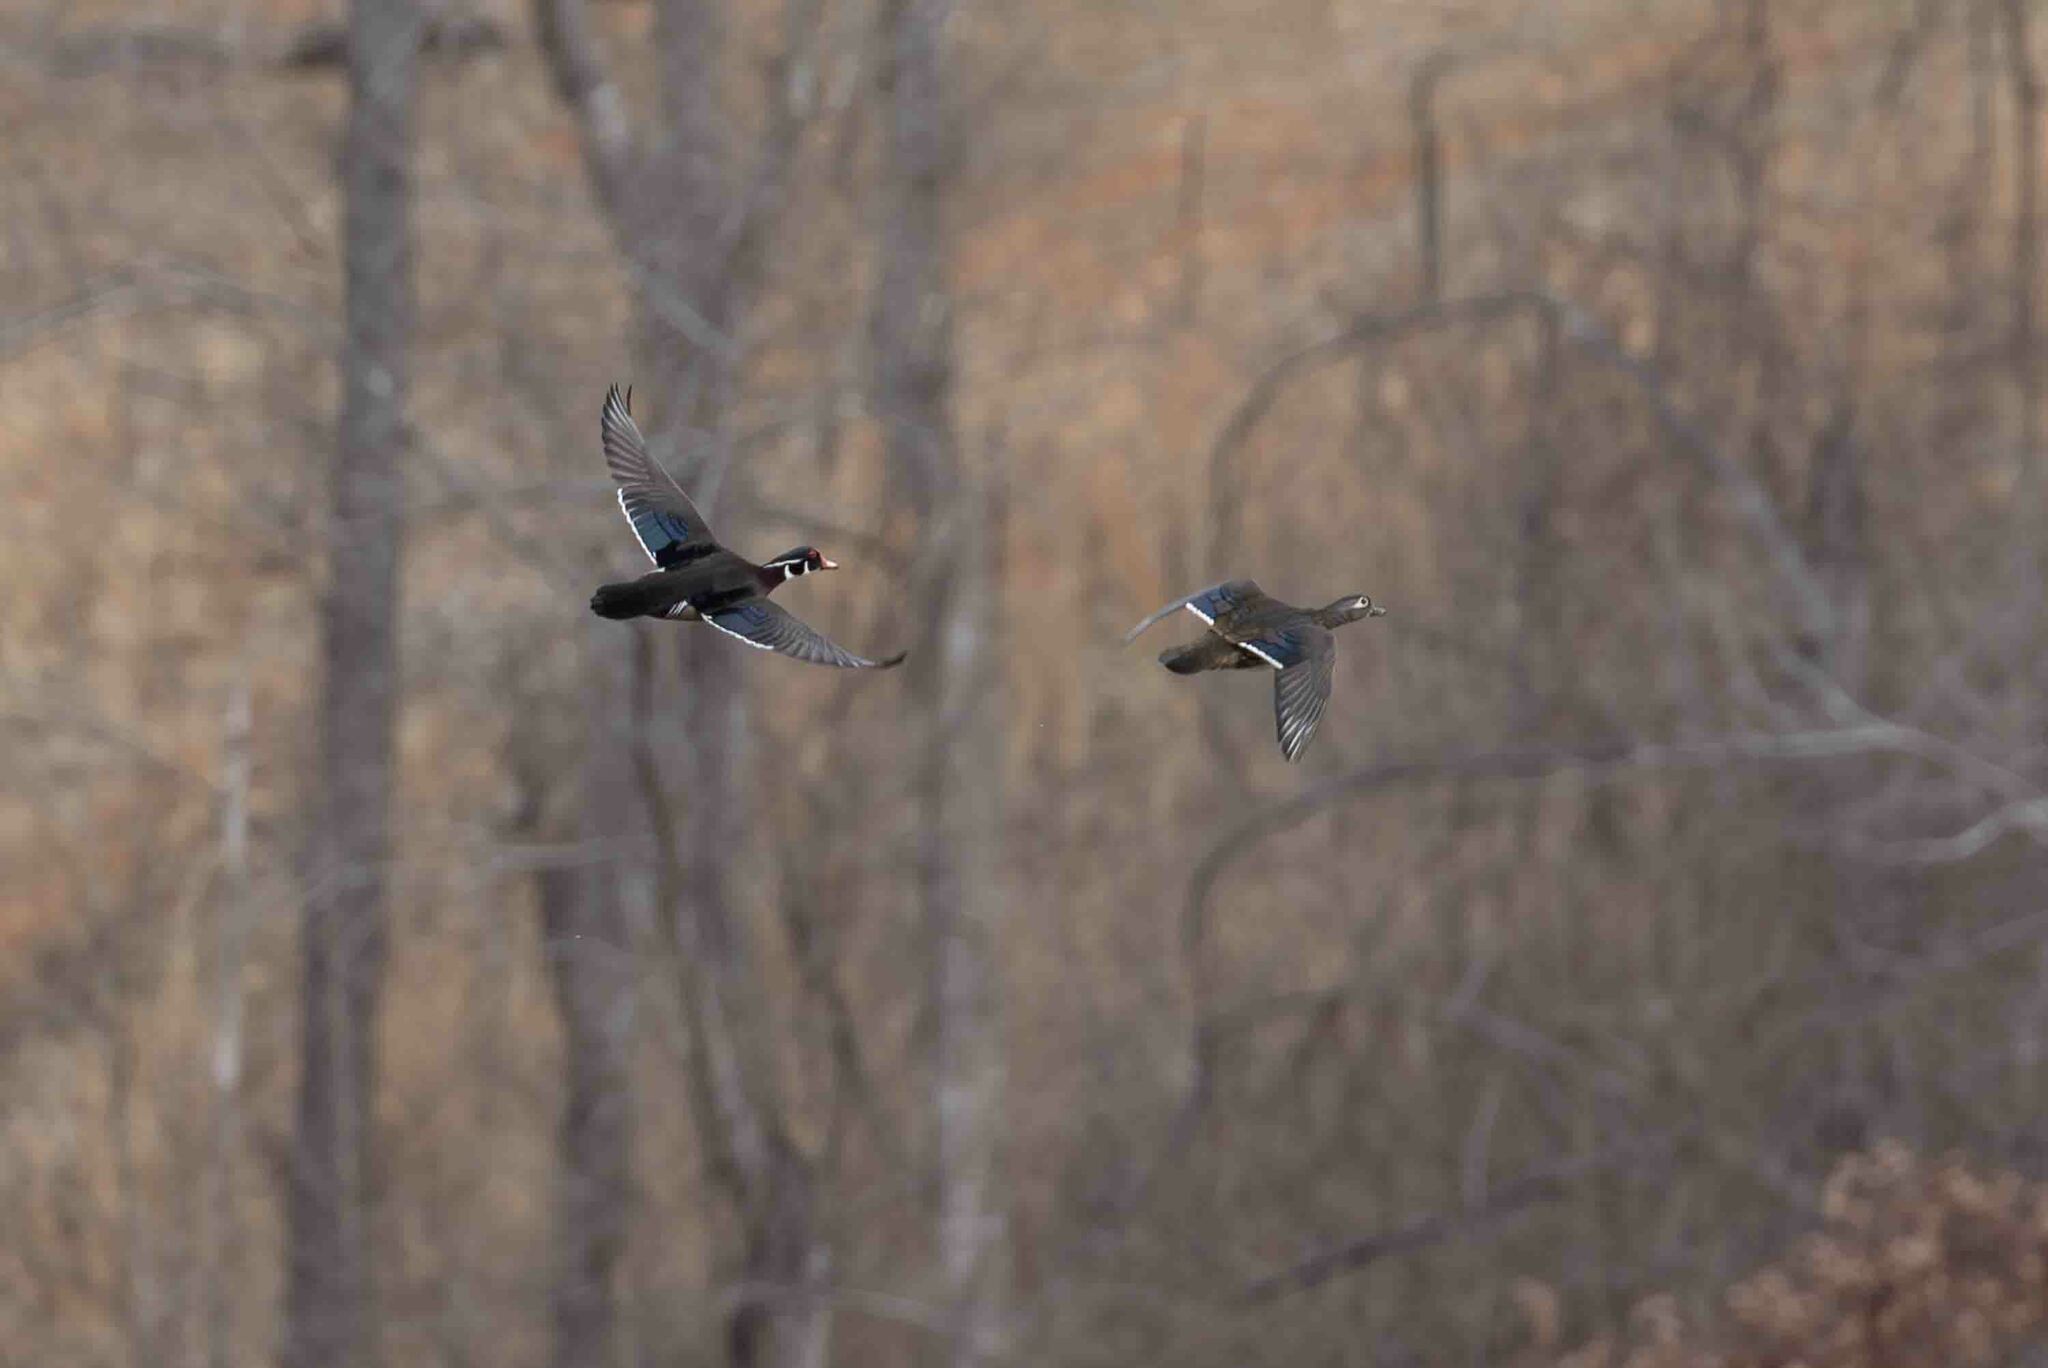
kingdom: Animalia
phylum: Chordata
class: Aves
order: Anseriformes
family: Anatidae
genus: Aix
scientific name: Aix sponsa
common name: Wood duck
